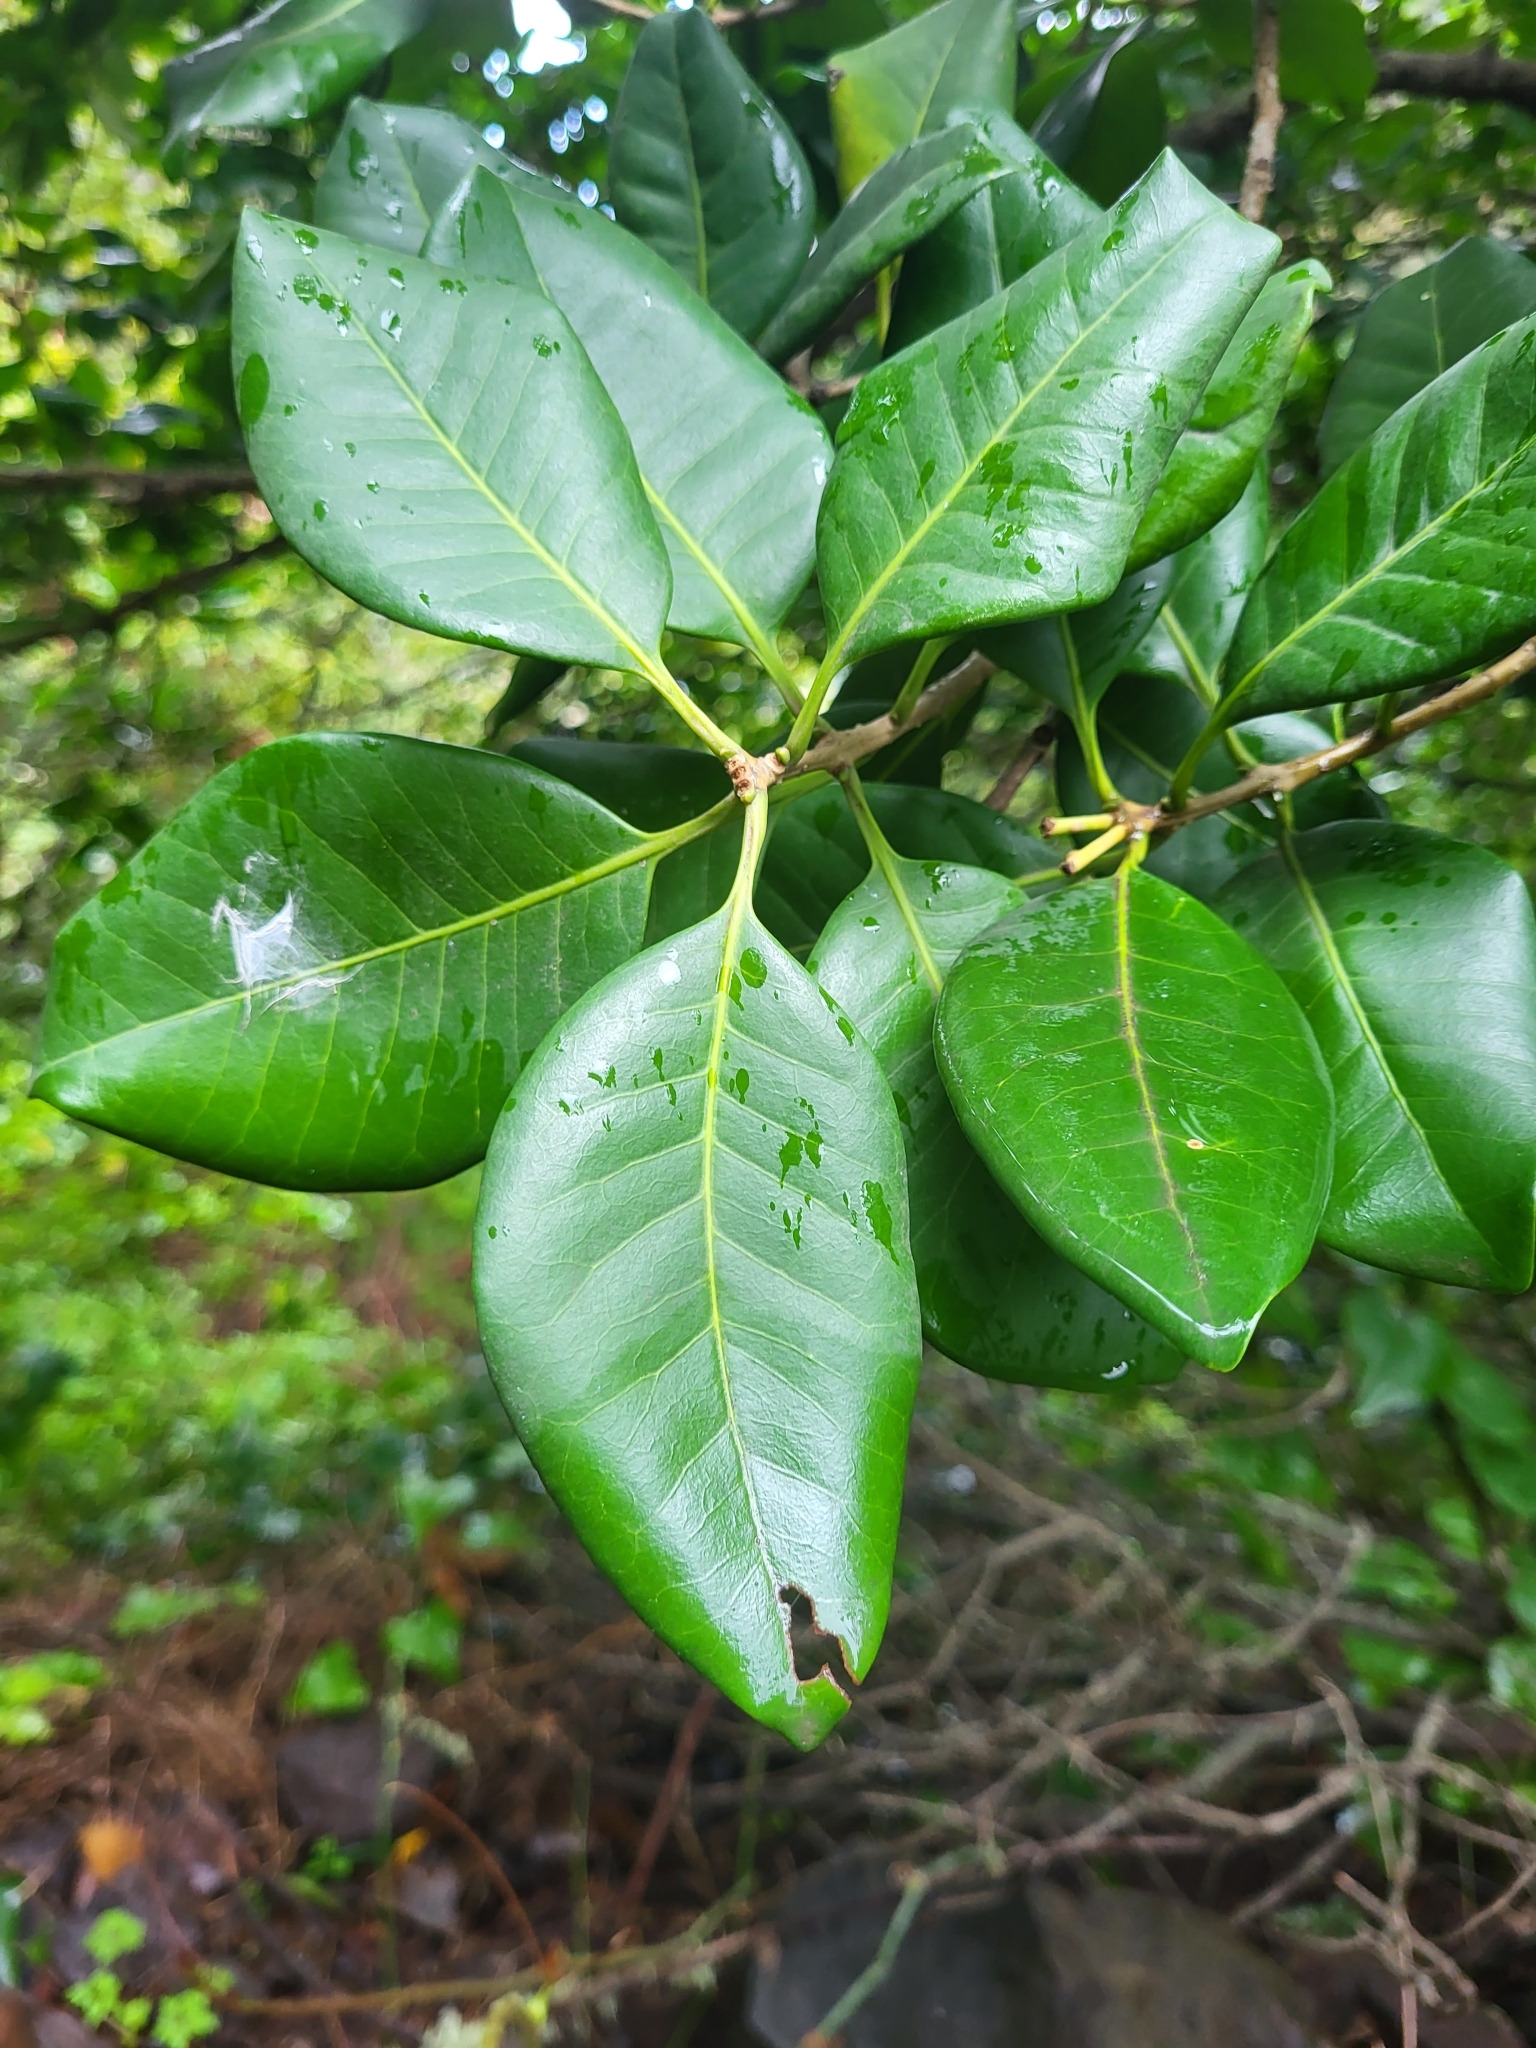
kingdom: Plantae
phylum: Tracheophyta
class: Magnoliopsida
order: Lamiales
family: Oleaceae
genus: Picconia
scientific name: Picconia excelsa
